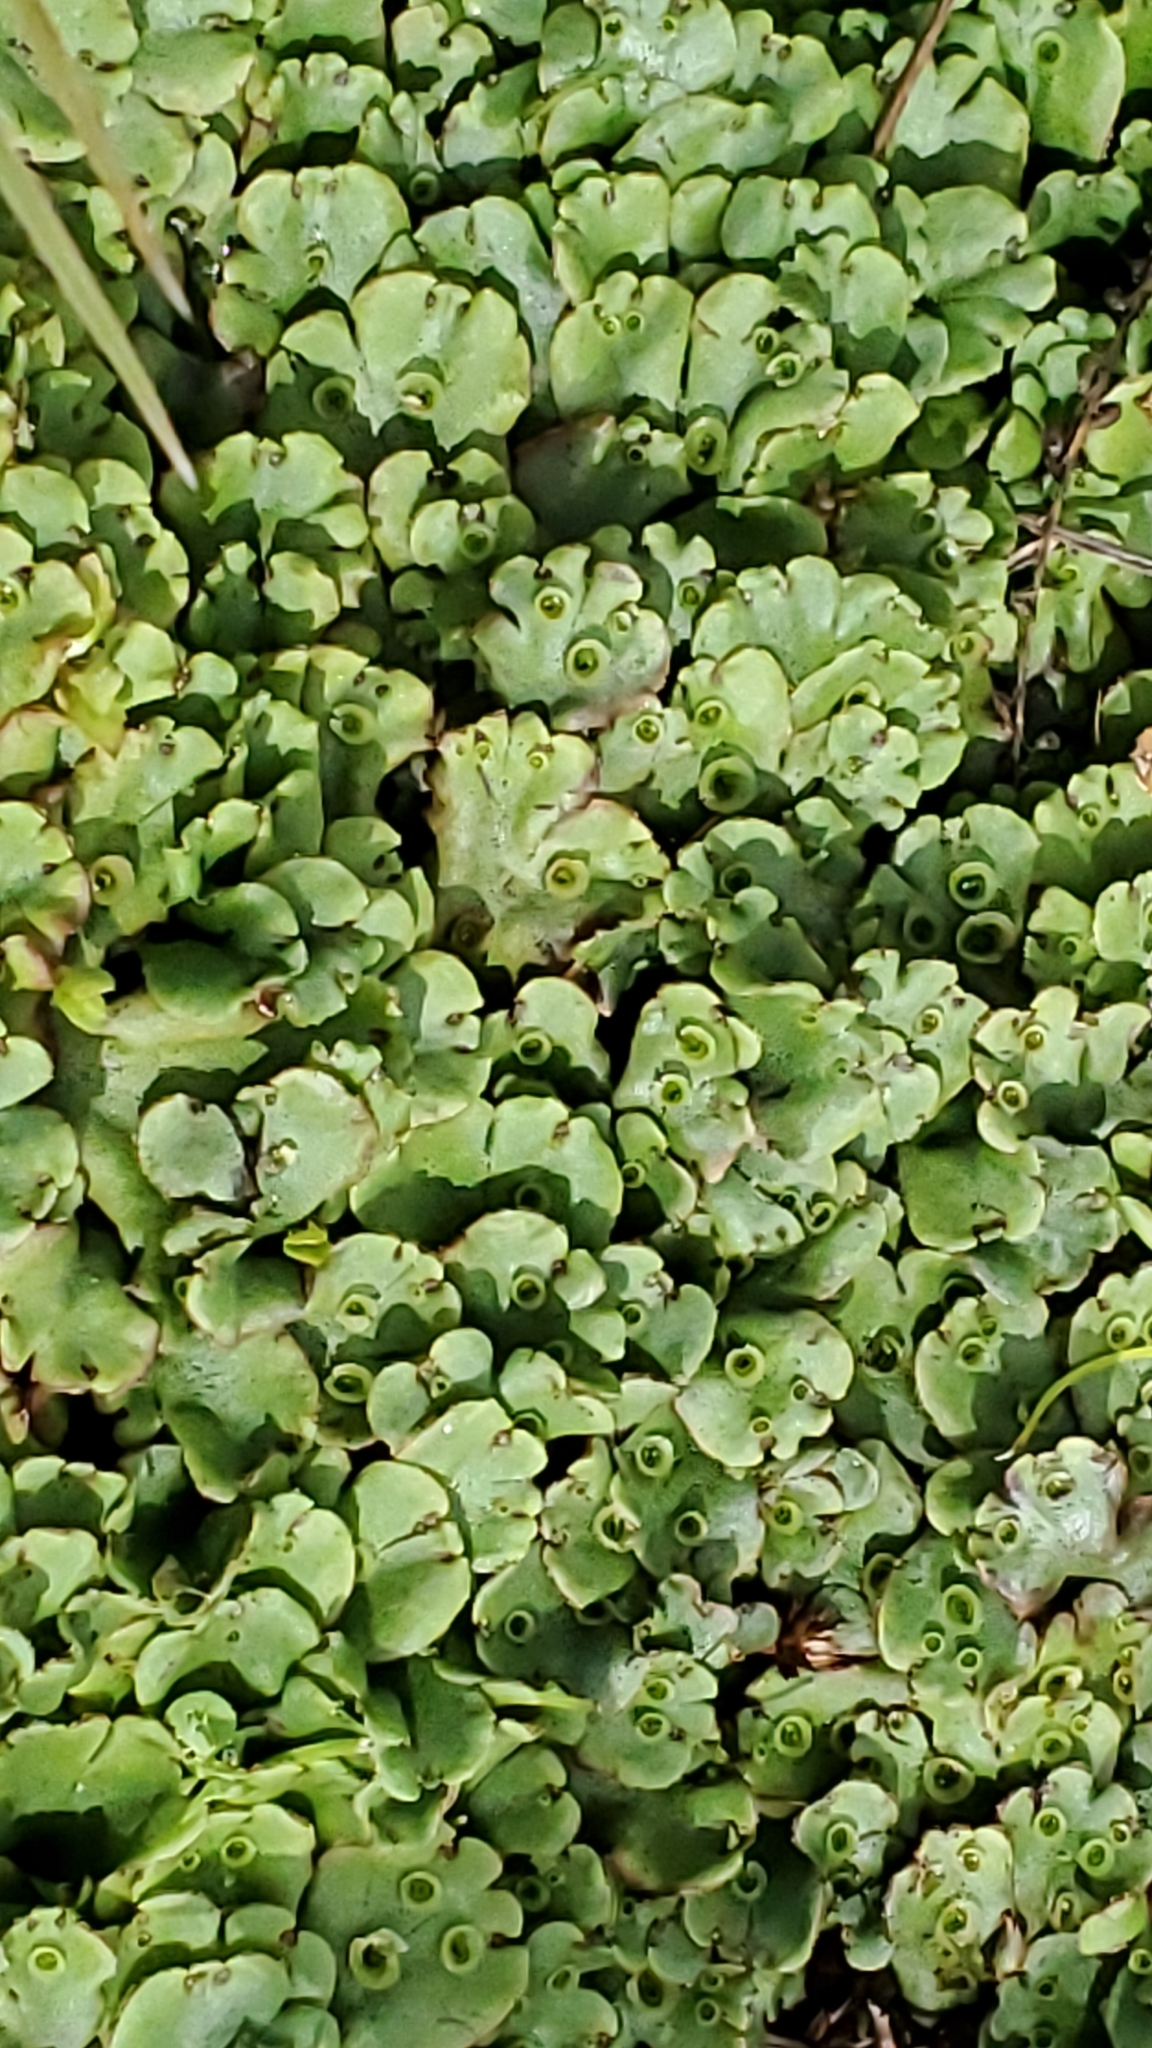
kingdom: Plantae
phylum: Marchantiophyta
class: Marchantiopsida
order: Marchantiales
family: Marchantiaceae
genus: Marchantia
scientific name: Marchantia polymorpha
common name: Common liverwort
